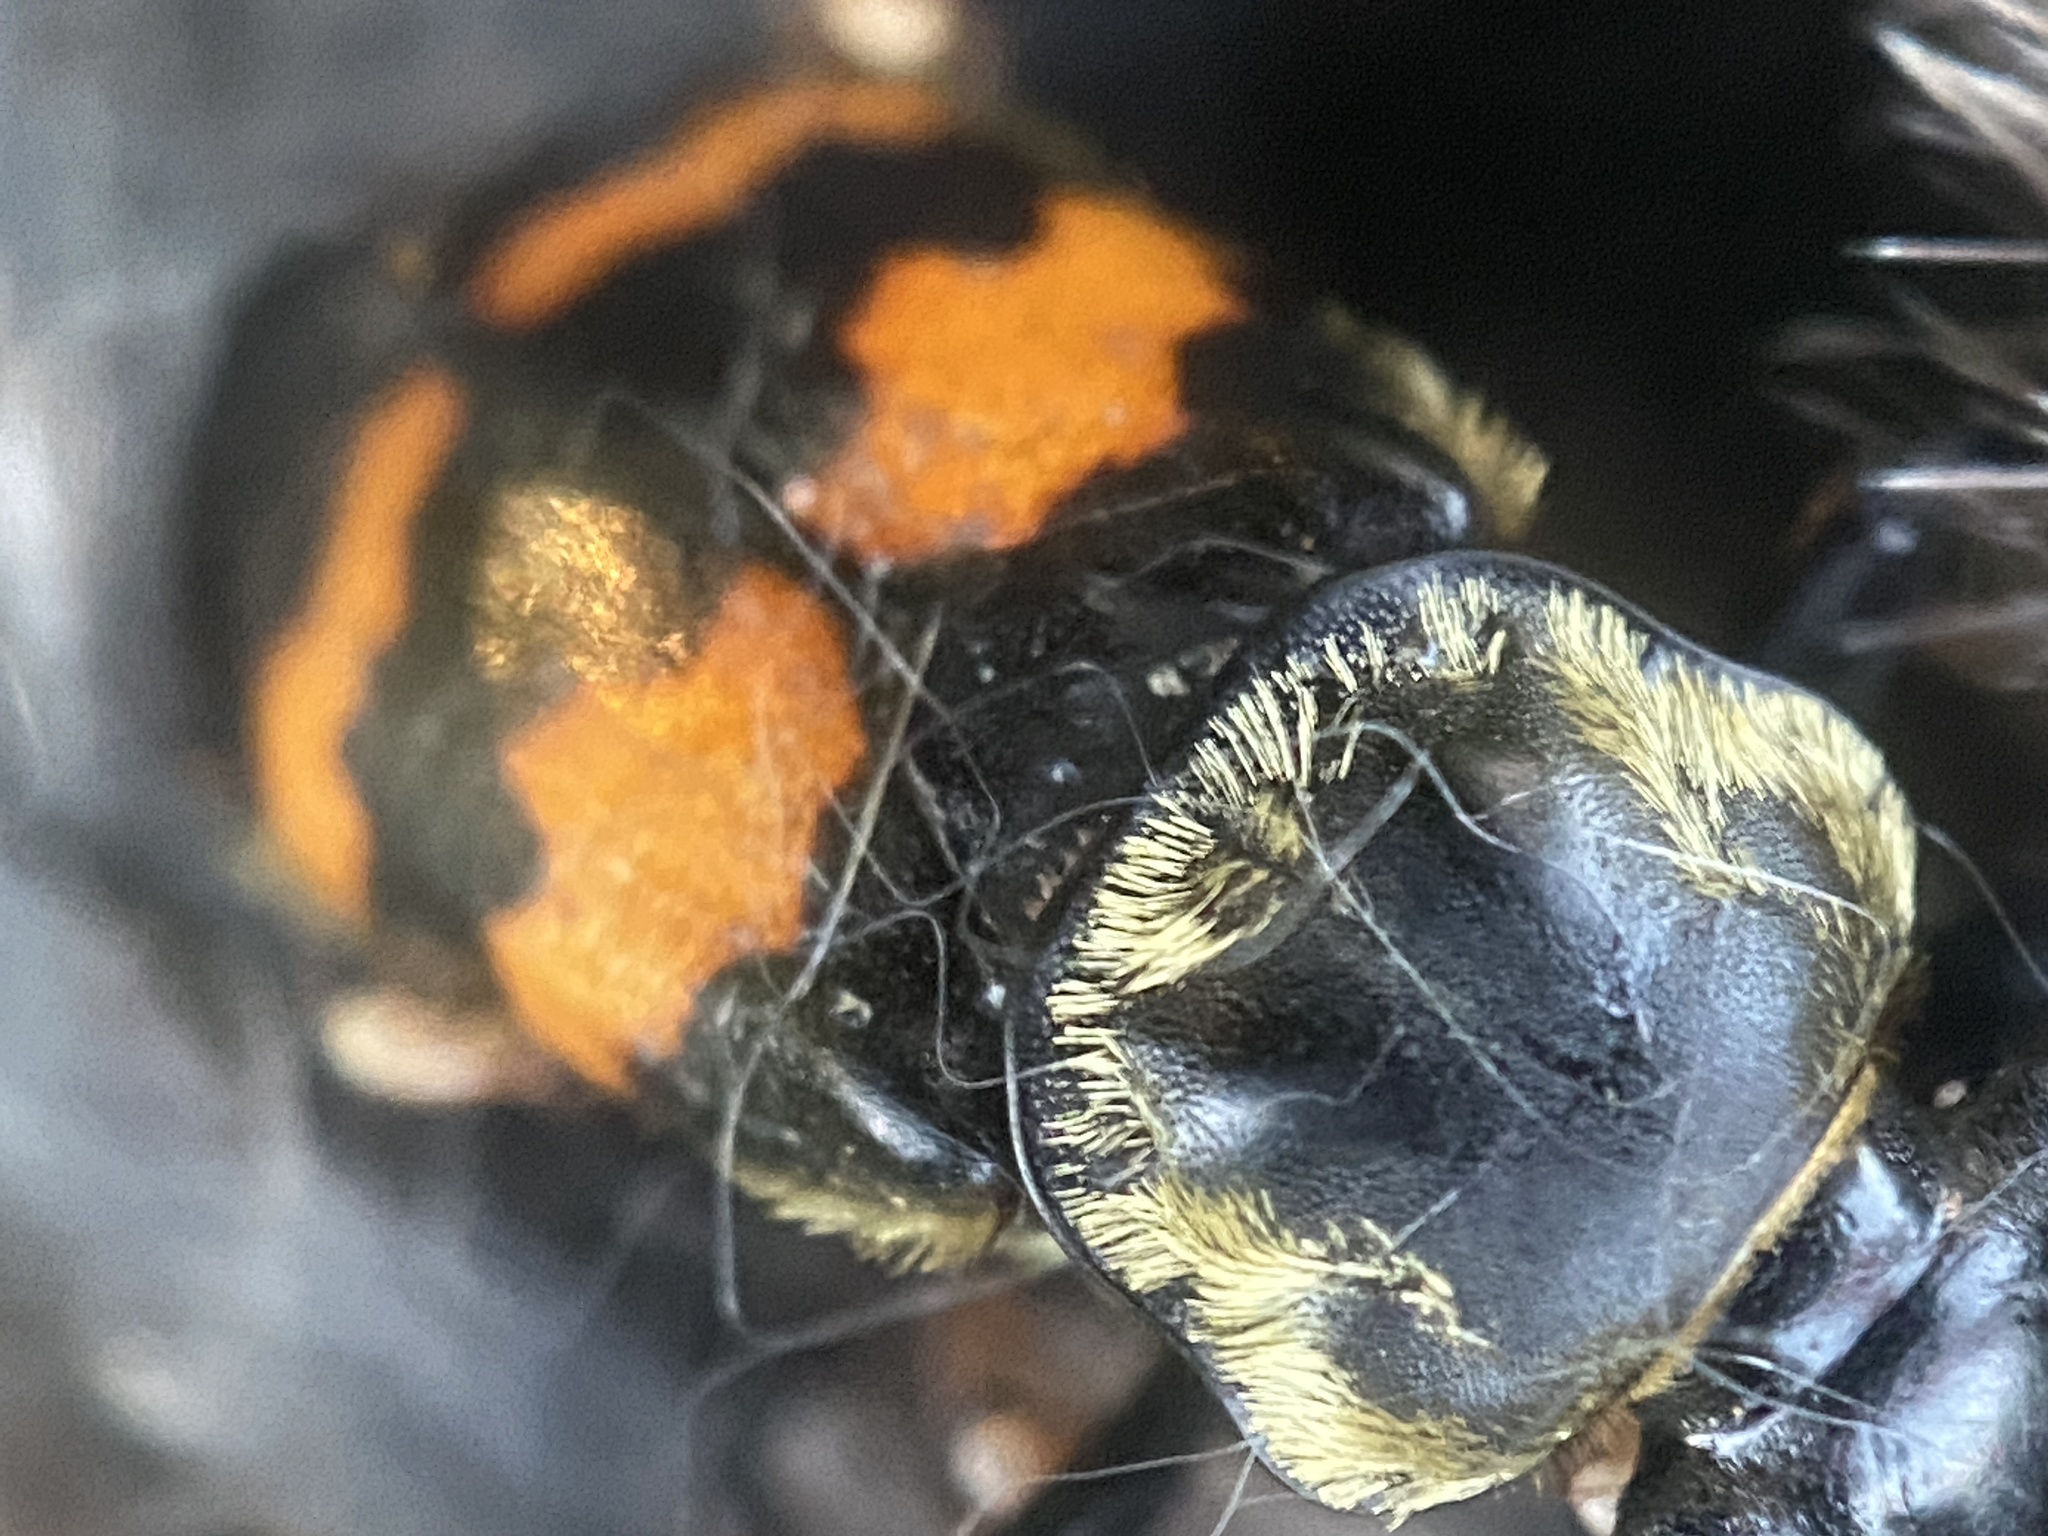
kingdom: Animalia
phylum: Arthropoda
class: Insecta
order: Coleoptera
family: Staphylinidae
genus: Nicrophorus
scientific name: Nicrophorus tomentosus
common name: Tomentose burying beetle
